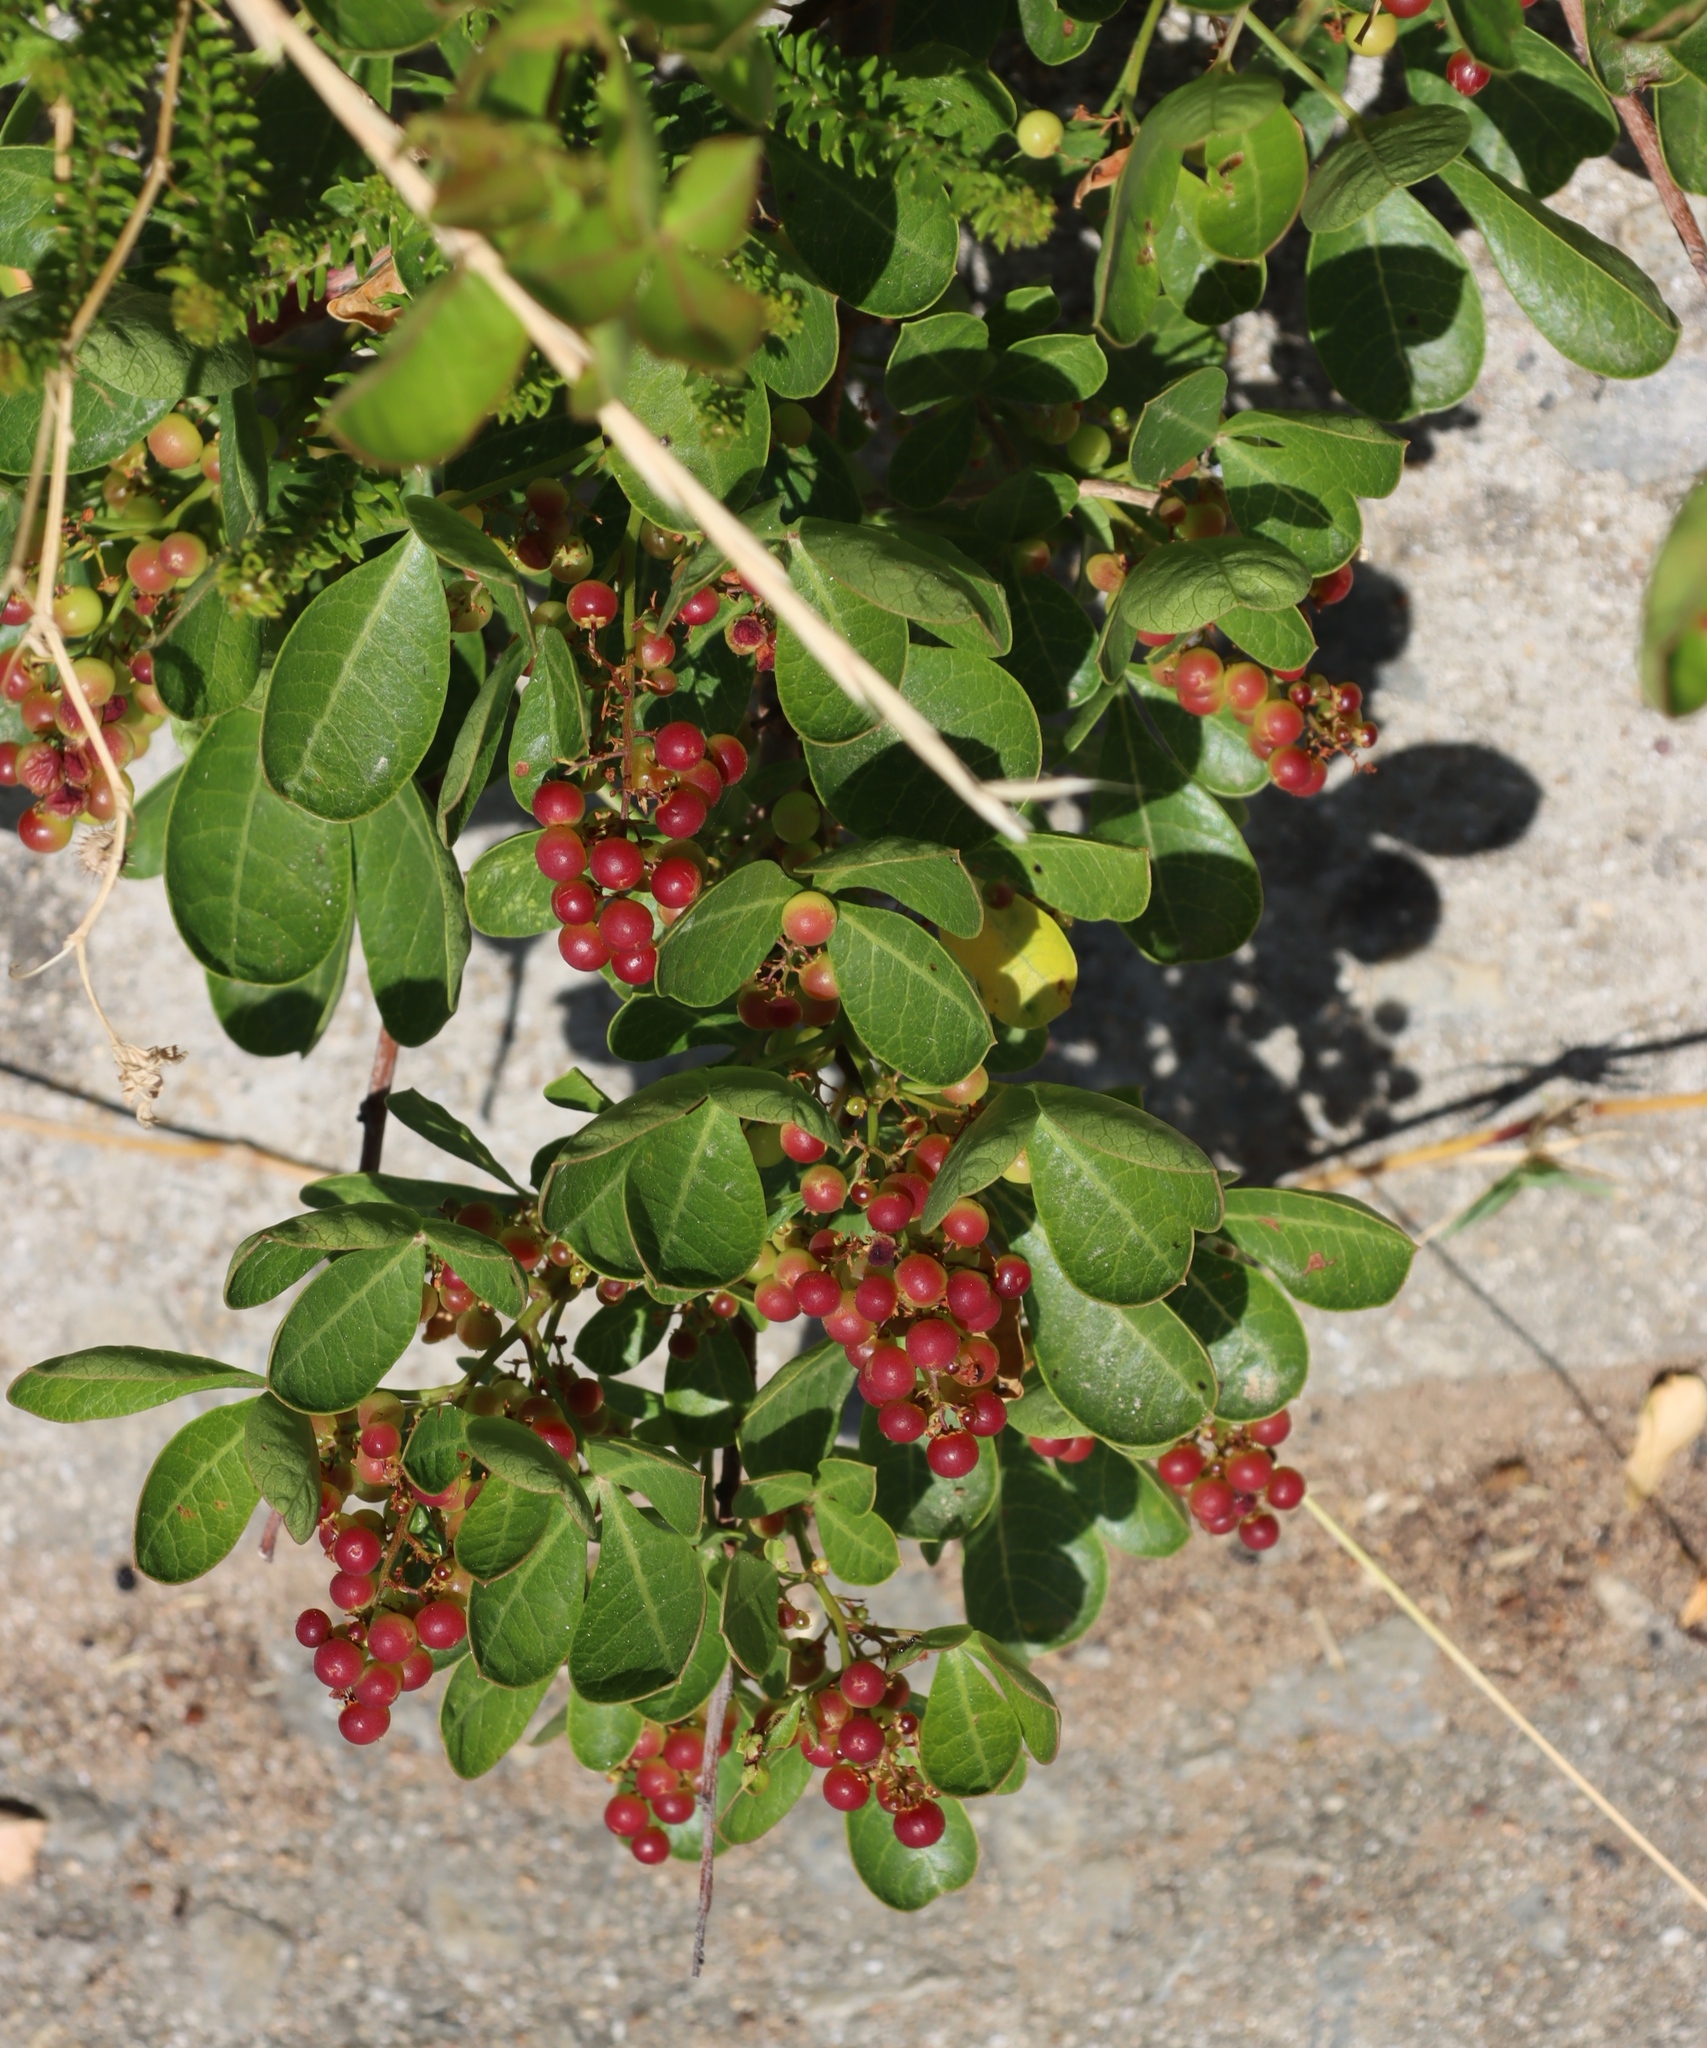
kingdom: Plantae
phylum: Tracheophyta
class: Magnoliopsida
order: Sapindales
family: Anacardiaceae
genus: Searsia
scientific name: Searsia glauca
